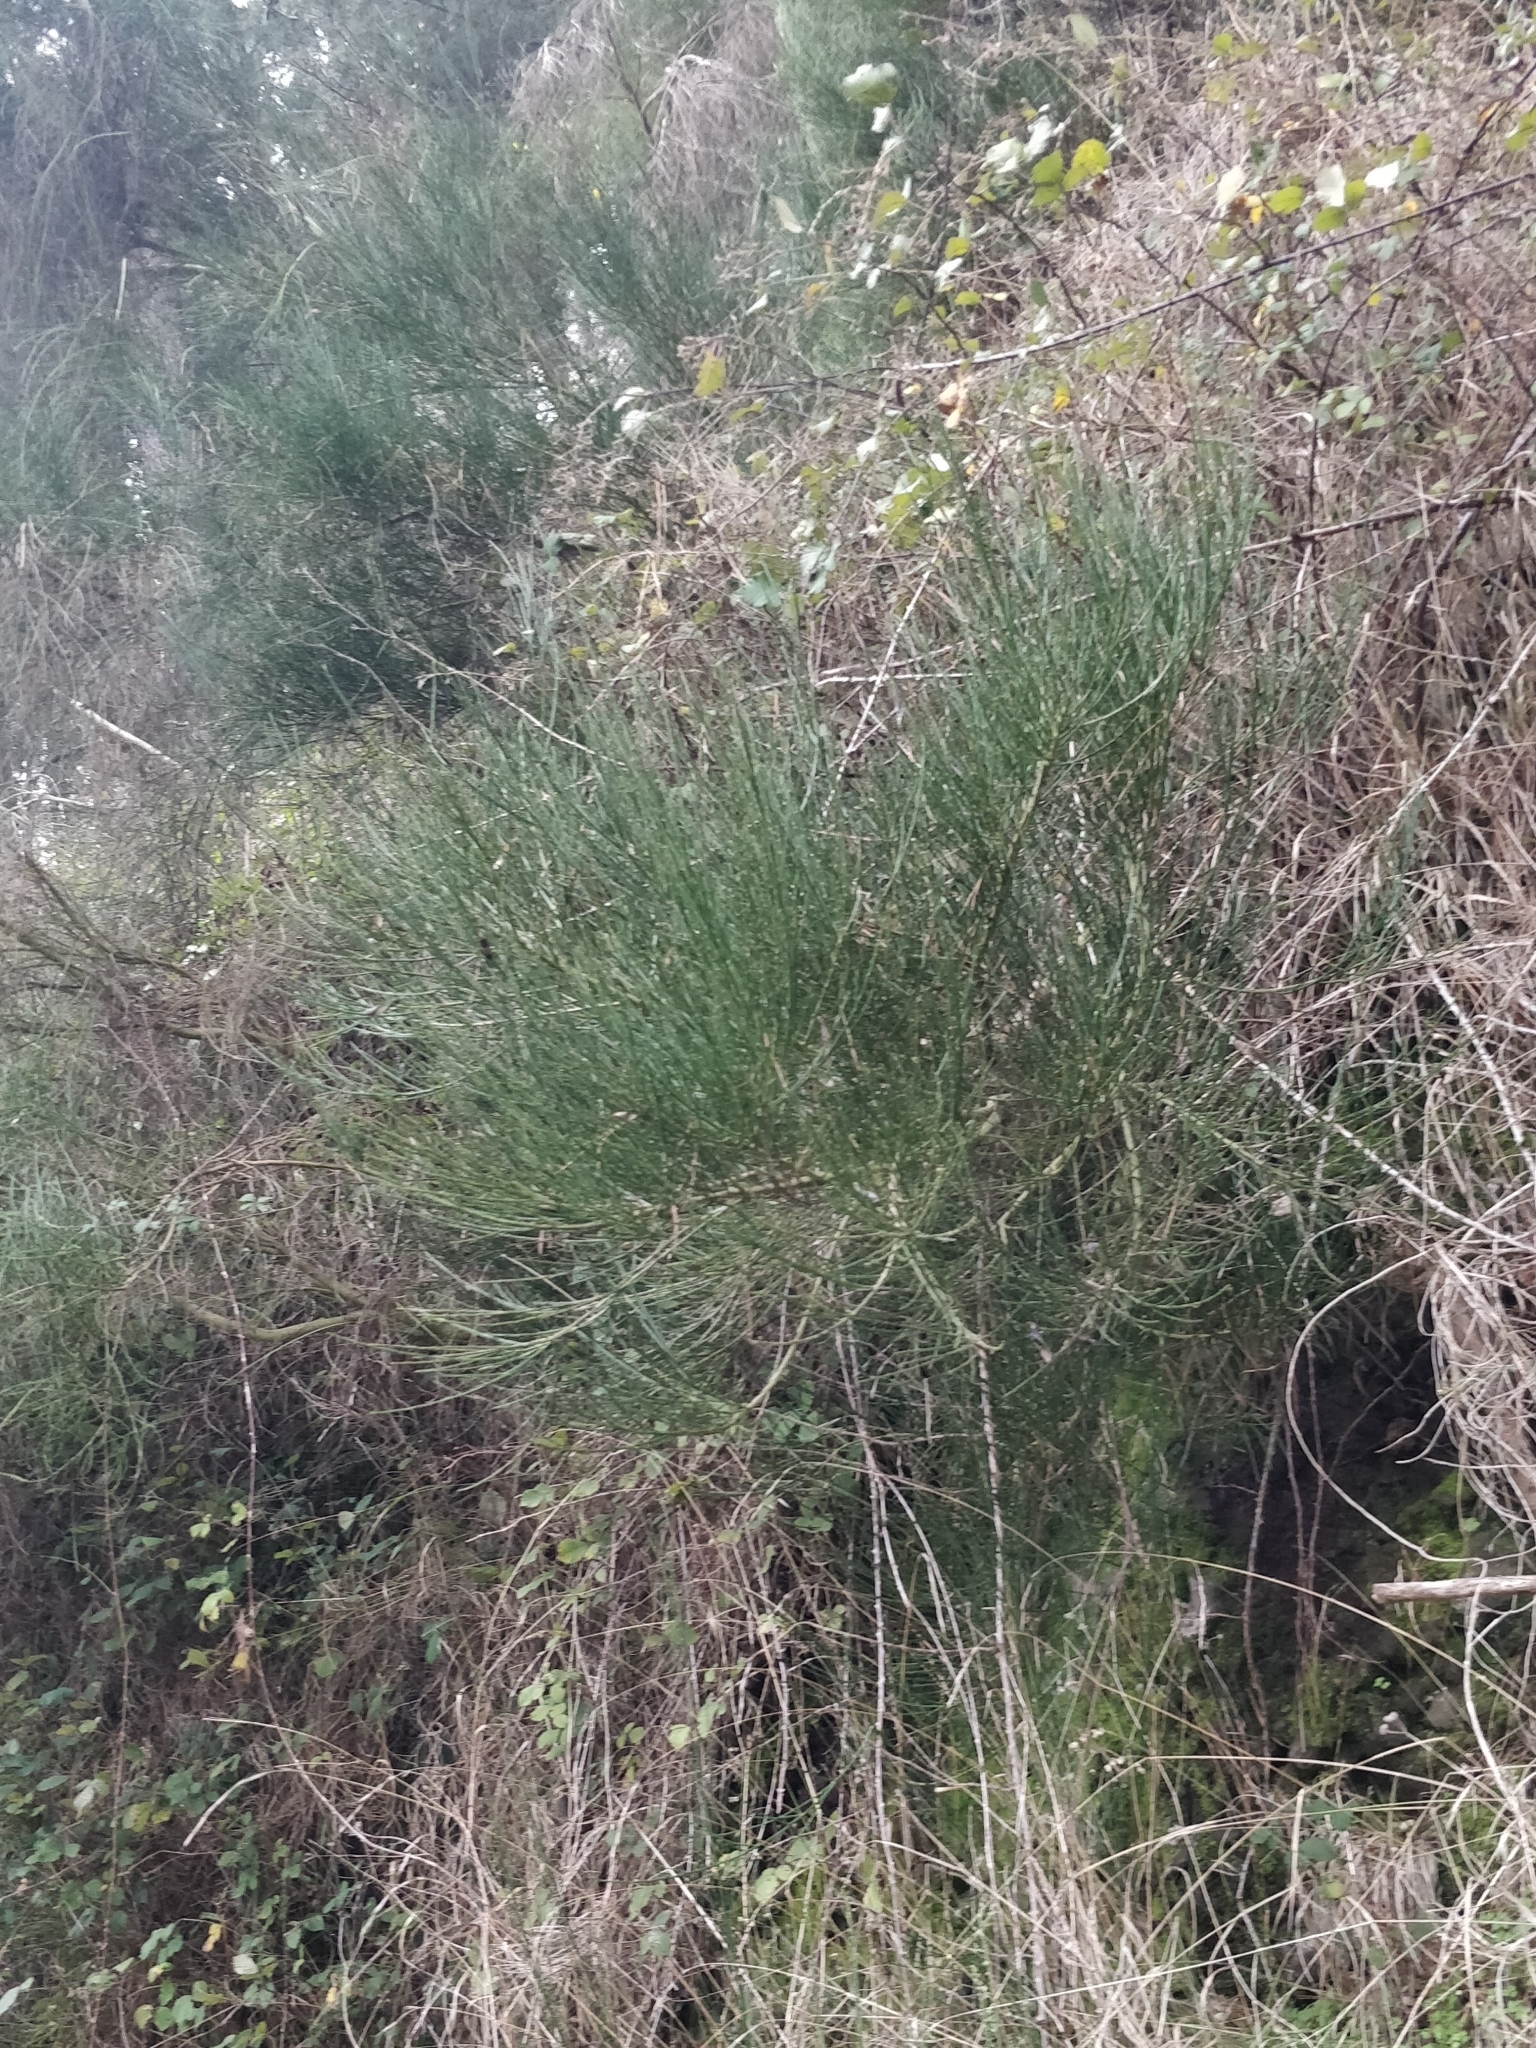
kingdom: Plantae
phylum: Tracheophyta
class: Magnoliopsida
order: Fabales
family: Fabaceae
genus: Cytisus
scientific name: Cytisus scoparius
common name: Scotch broom
